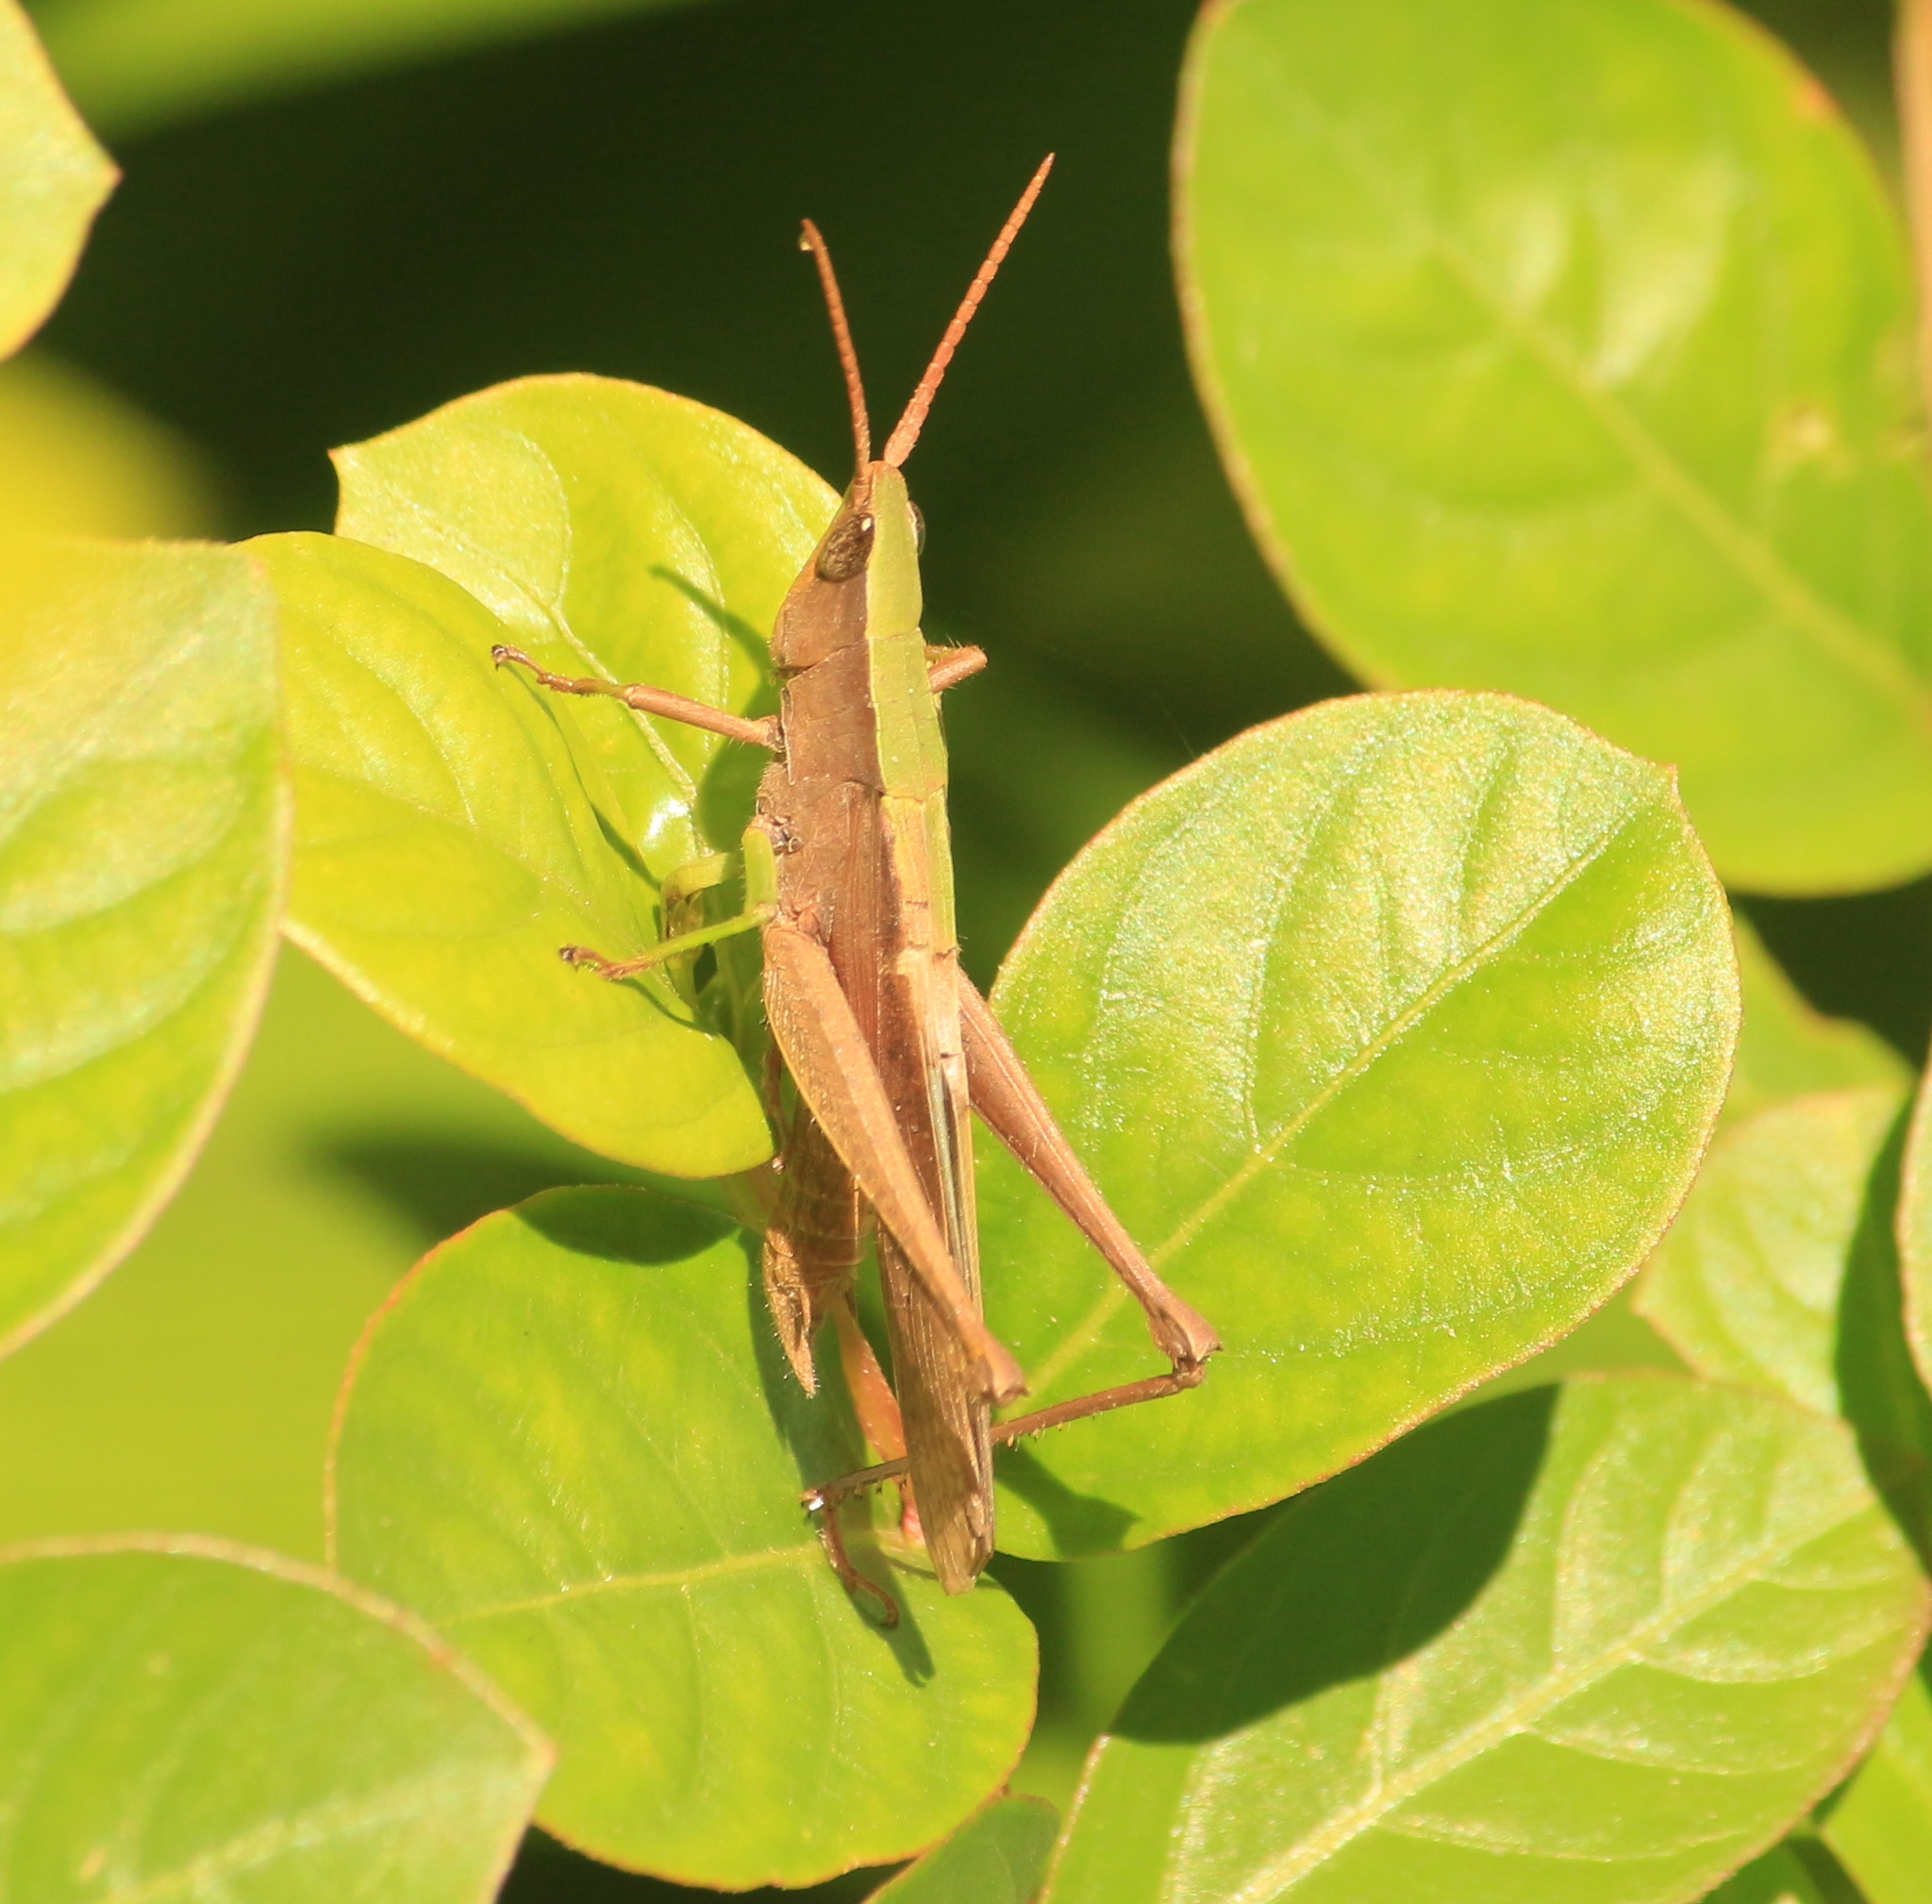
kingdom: Animalia
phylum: Arthropoda
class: Insecta
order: Orthoptera
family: Acrididae
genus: Metaleptea
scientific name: Metaleptea adspersa
